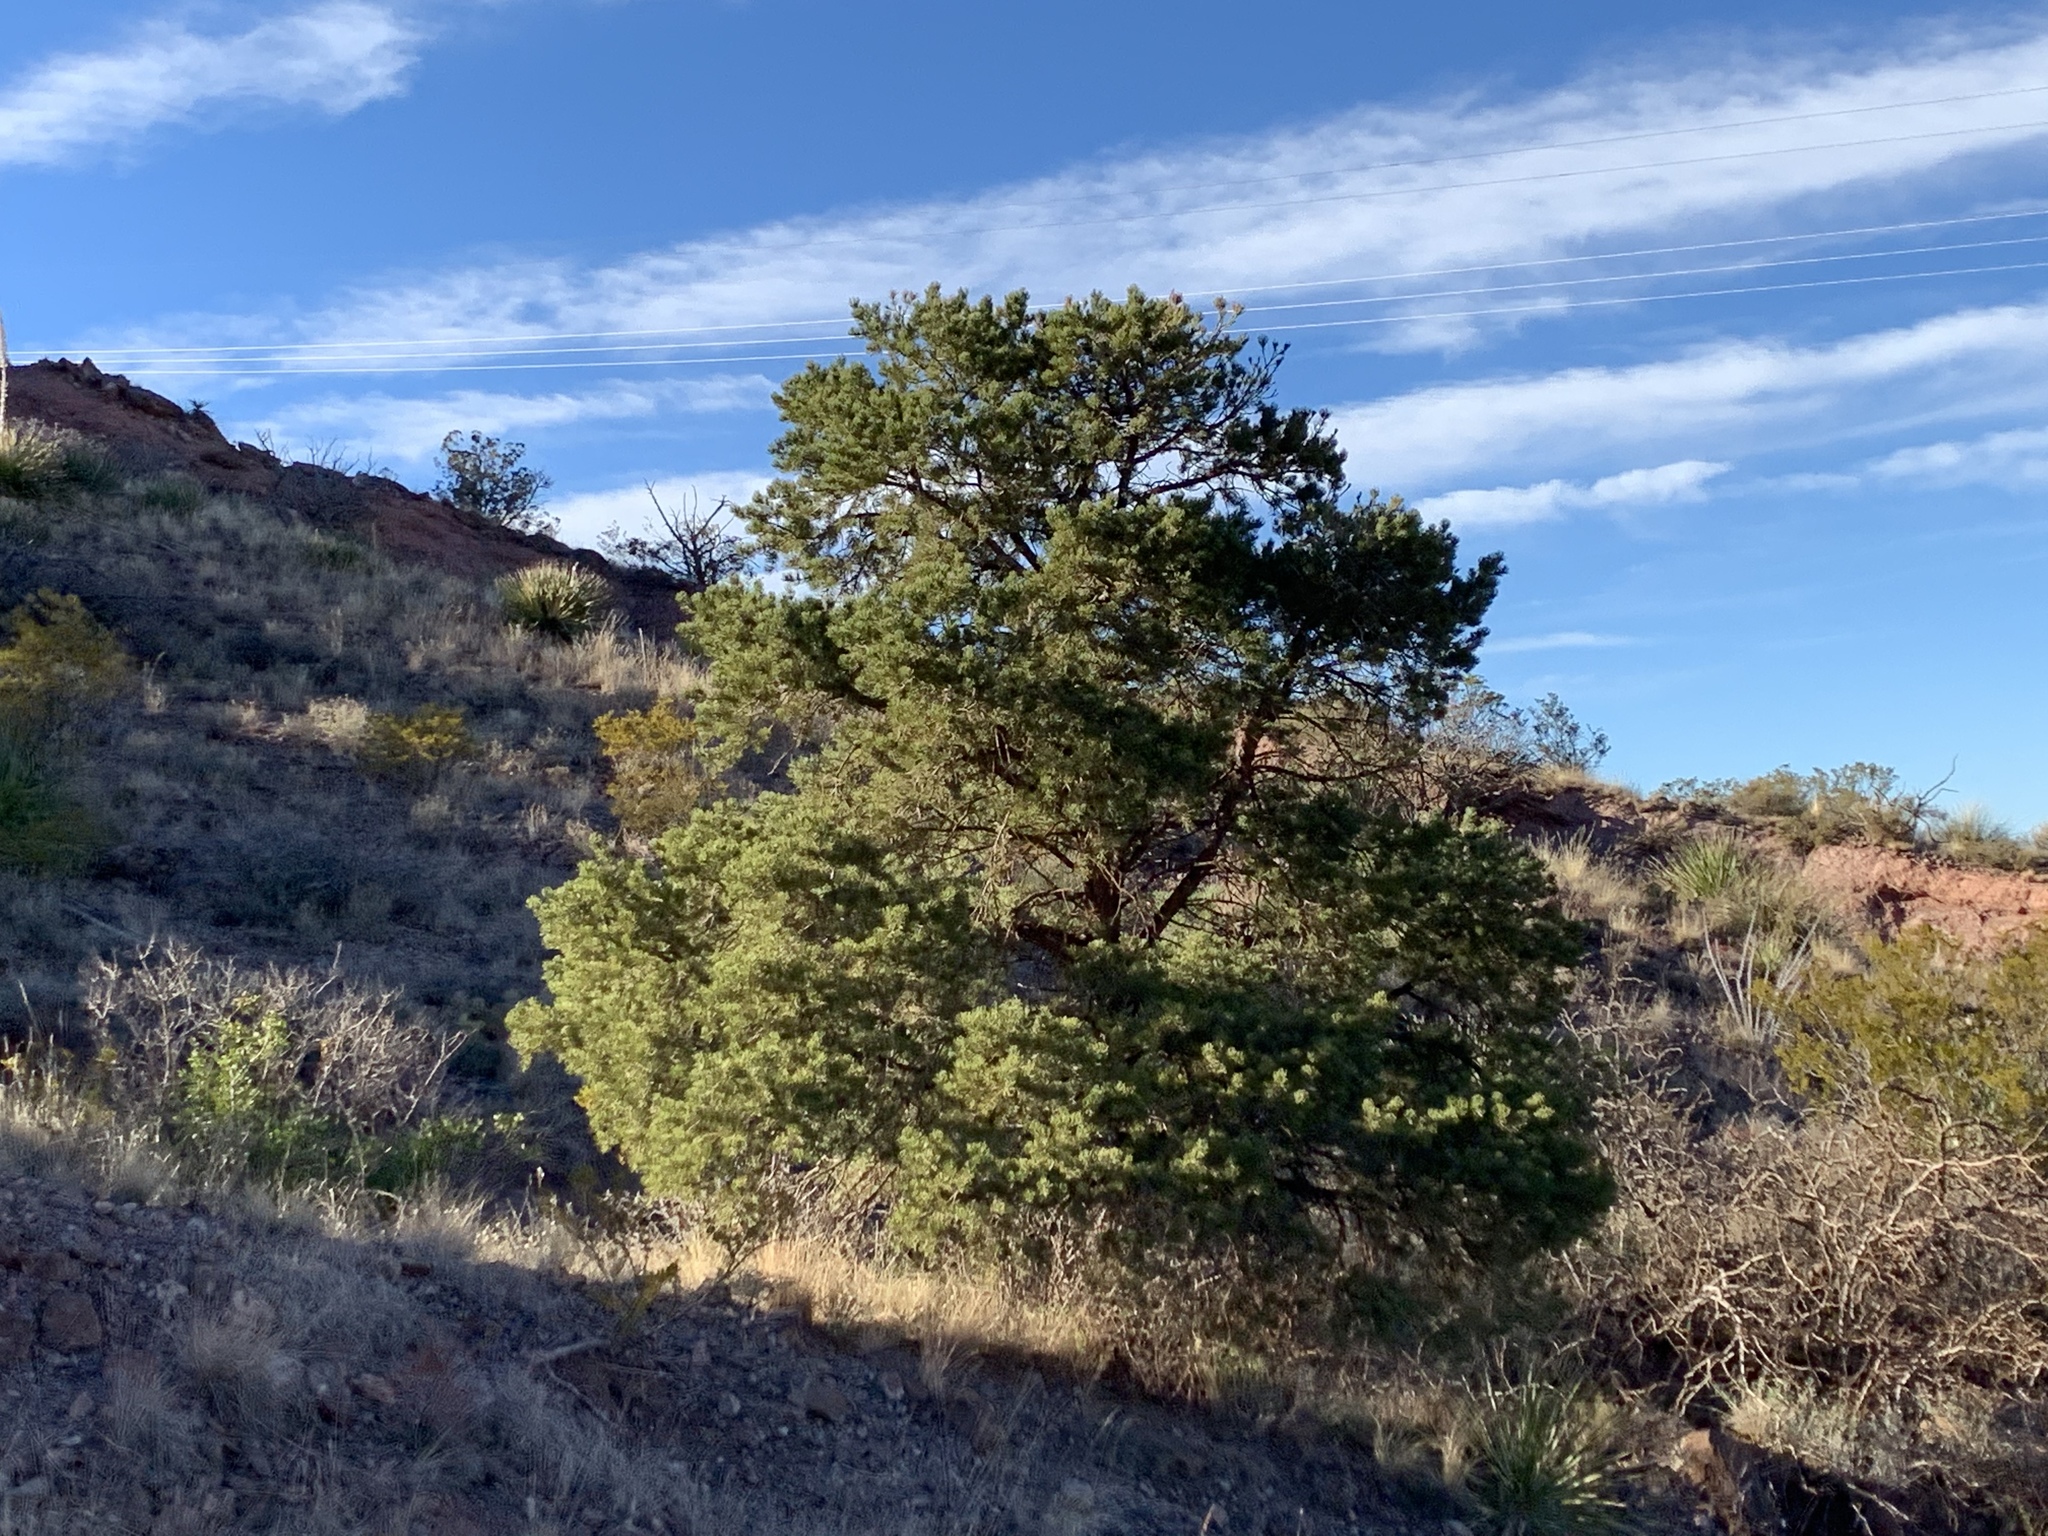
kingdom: Plantae
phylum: Tracheophyta
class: Pinopsida
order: Pinales
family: Pinaceae
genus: Pinus
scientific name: Pinus edulis
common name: Colorado pinyon
